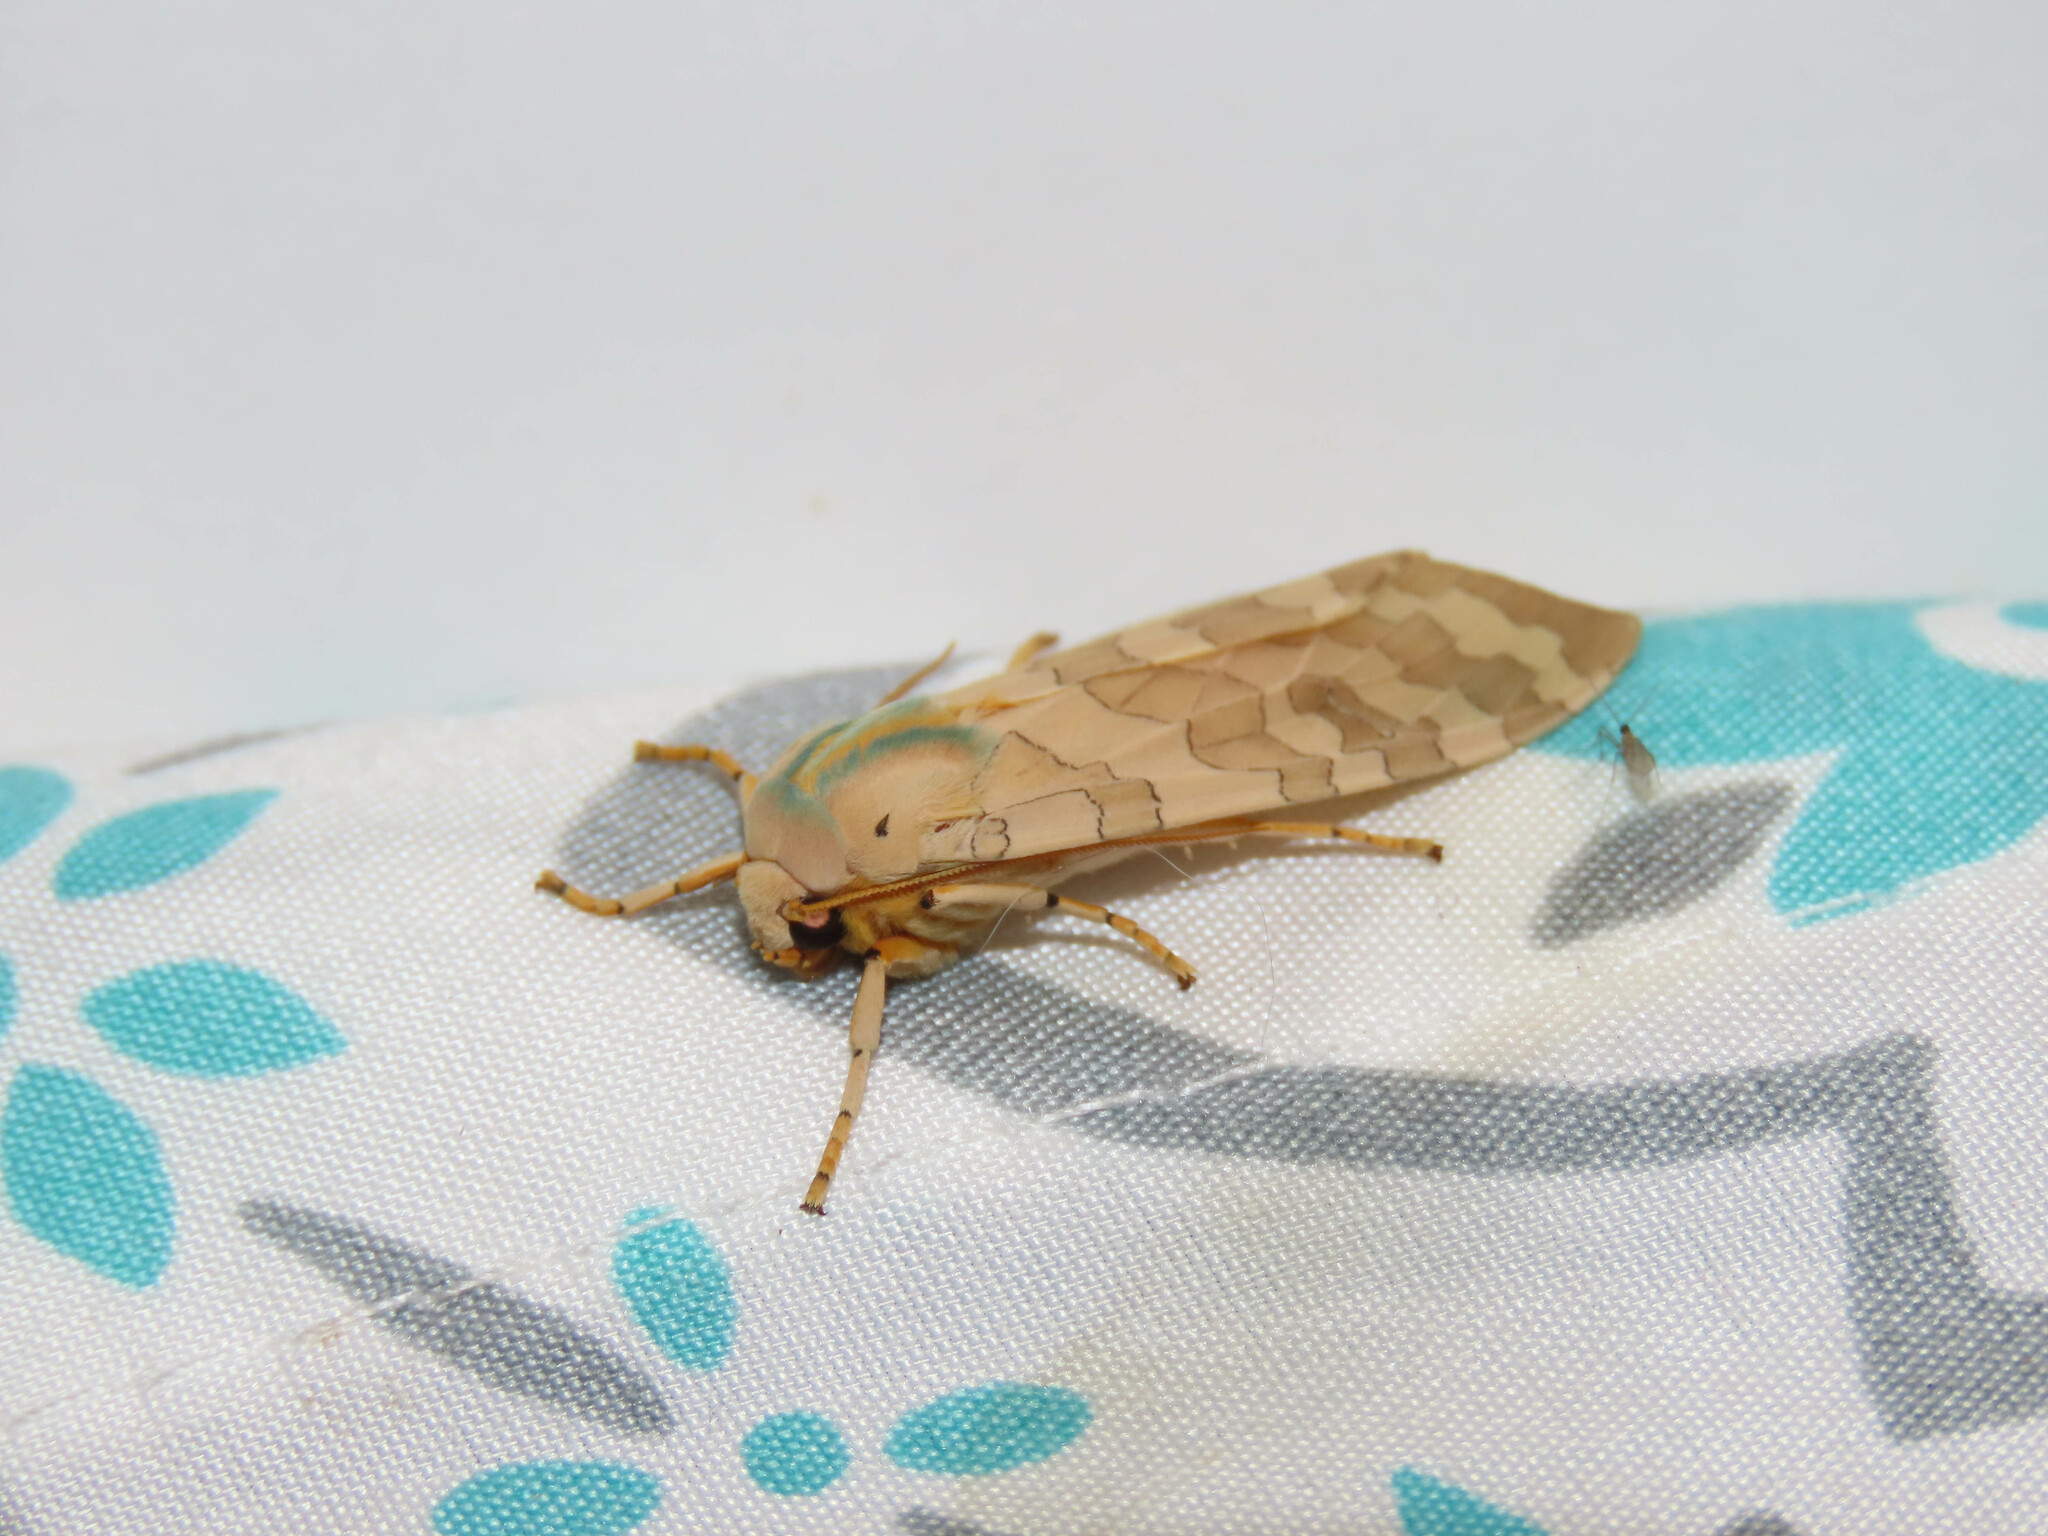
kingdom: Animalia
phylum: Arthropoda
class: Insecta
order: Lepidoptera
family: Erebidae
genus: Halysidota
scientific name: Halysidota
